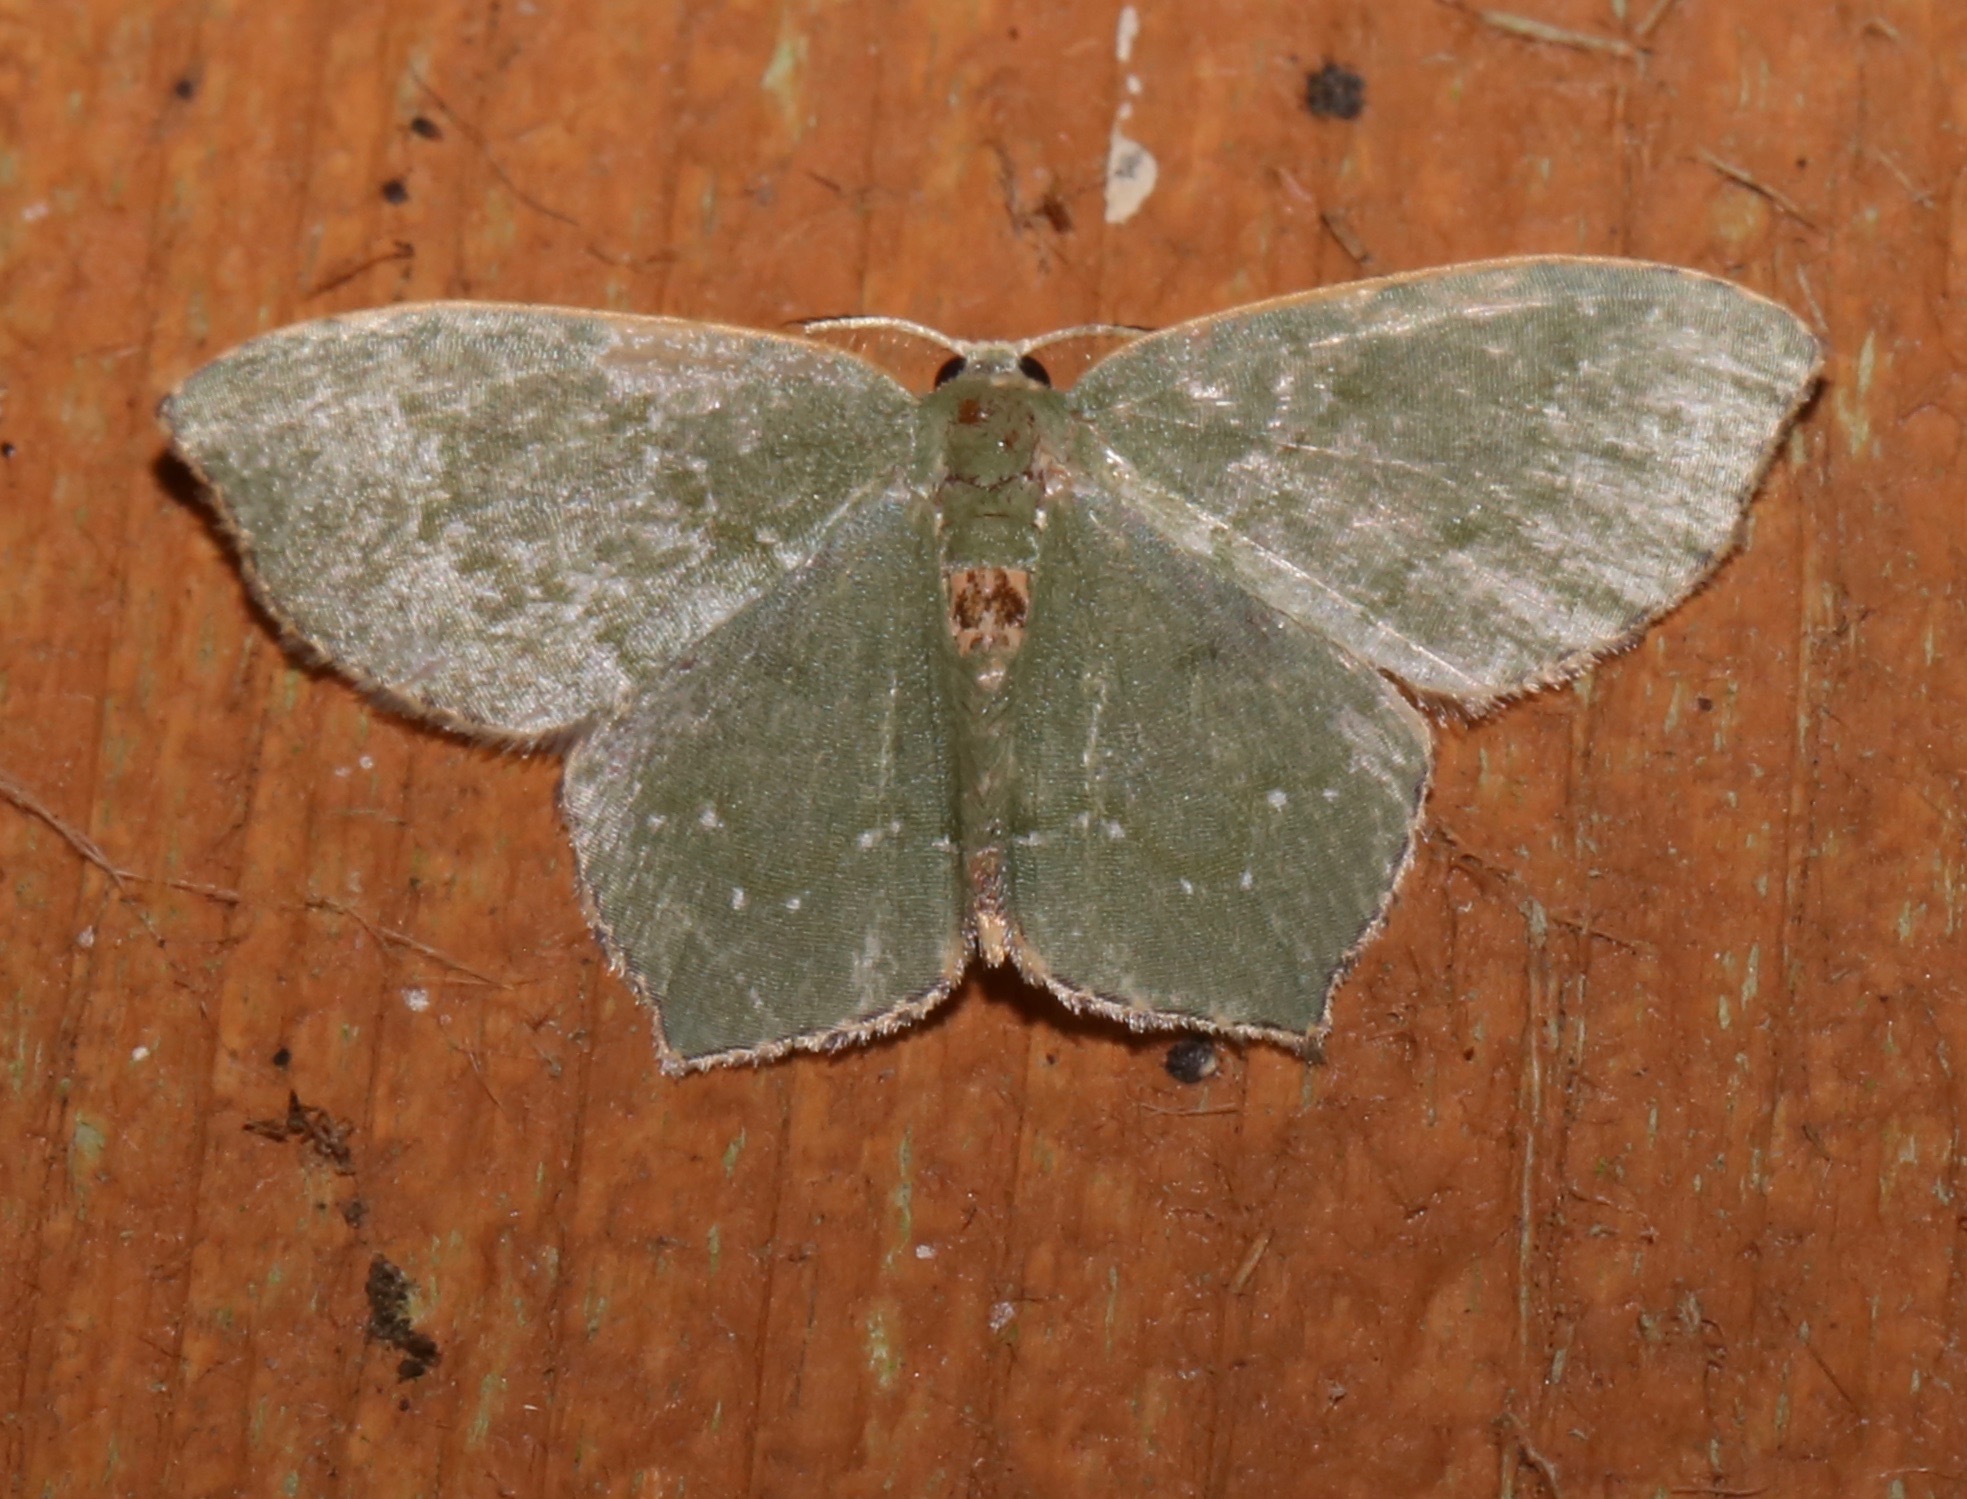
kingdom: Animalia
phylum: Arthropoda
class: Insecta
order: Lepidoptera
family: Geometridae
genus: Chloropteryx
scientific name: Chloropteryx tepperaria
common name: Angle winged emerald moth
